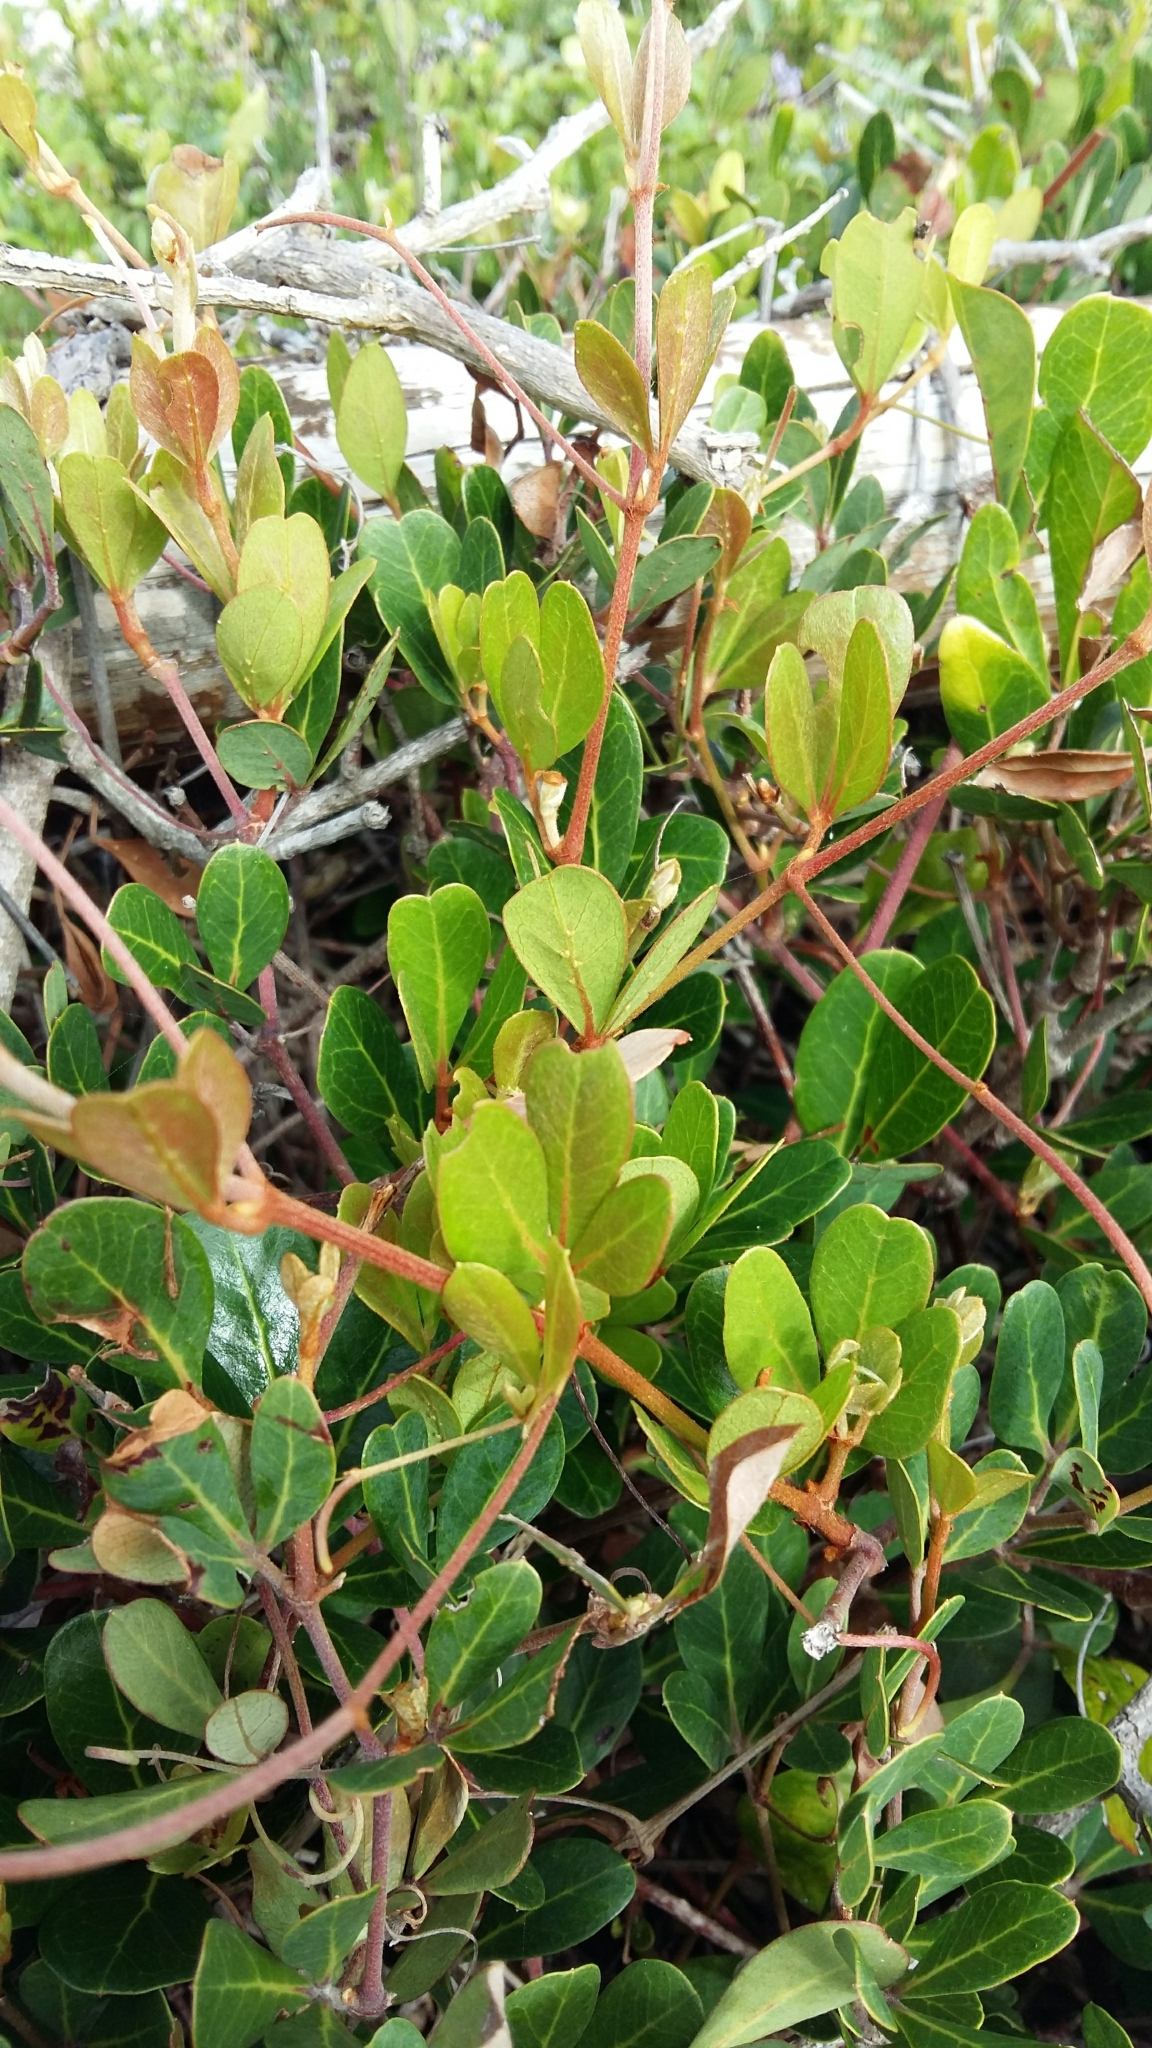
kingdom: Plantae
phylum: Tracheophyta
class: Magnoliopsida
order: Vitales
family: Vitaceae
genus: Rhoicissus
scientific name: Rhoicissus digitata
